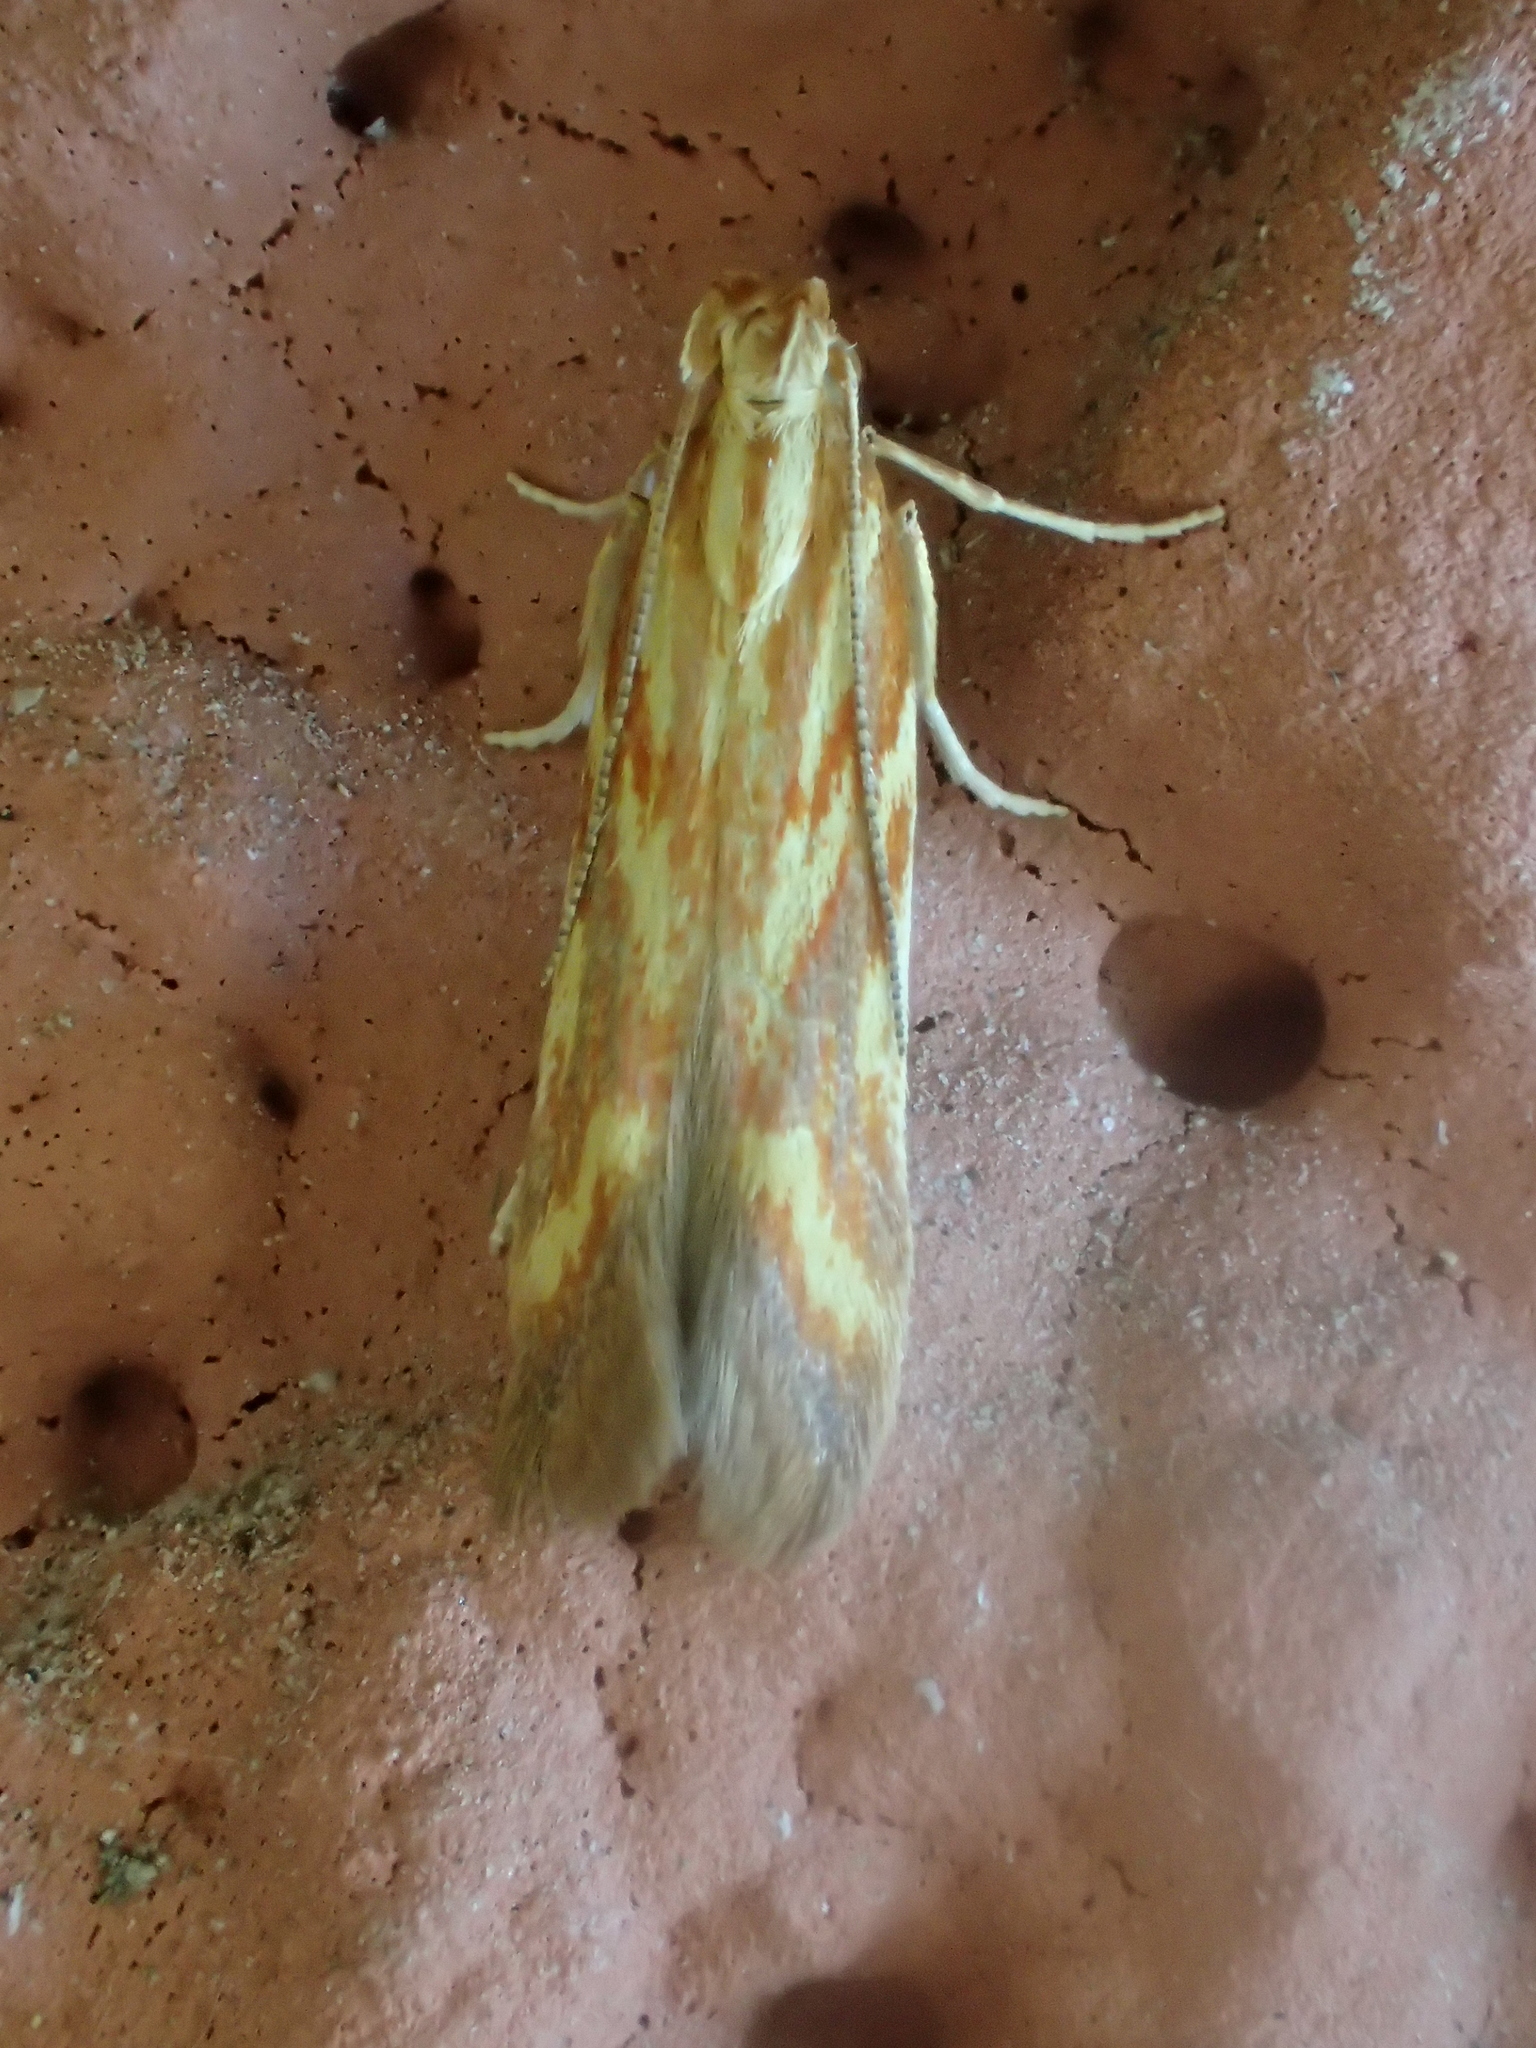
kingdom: Animalia
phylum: Arthropoda
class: Insecta
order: Lepidoptera
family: Gelechiidae
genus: Metzneria
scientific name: Metzneria aprilella
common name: Brilliant neb
